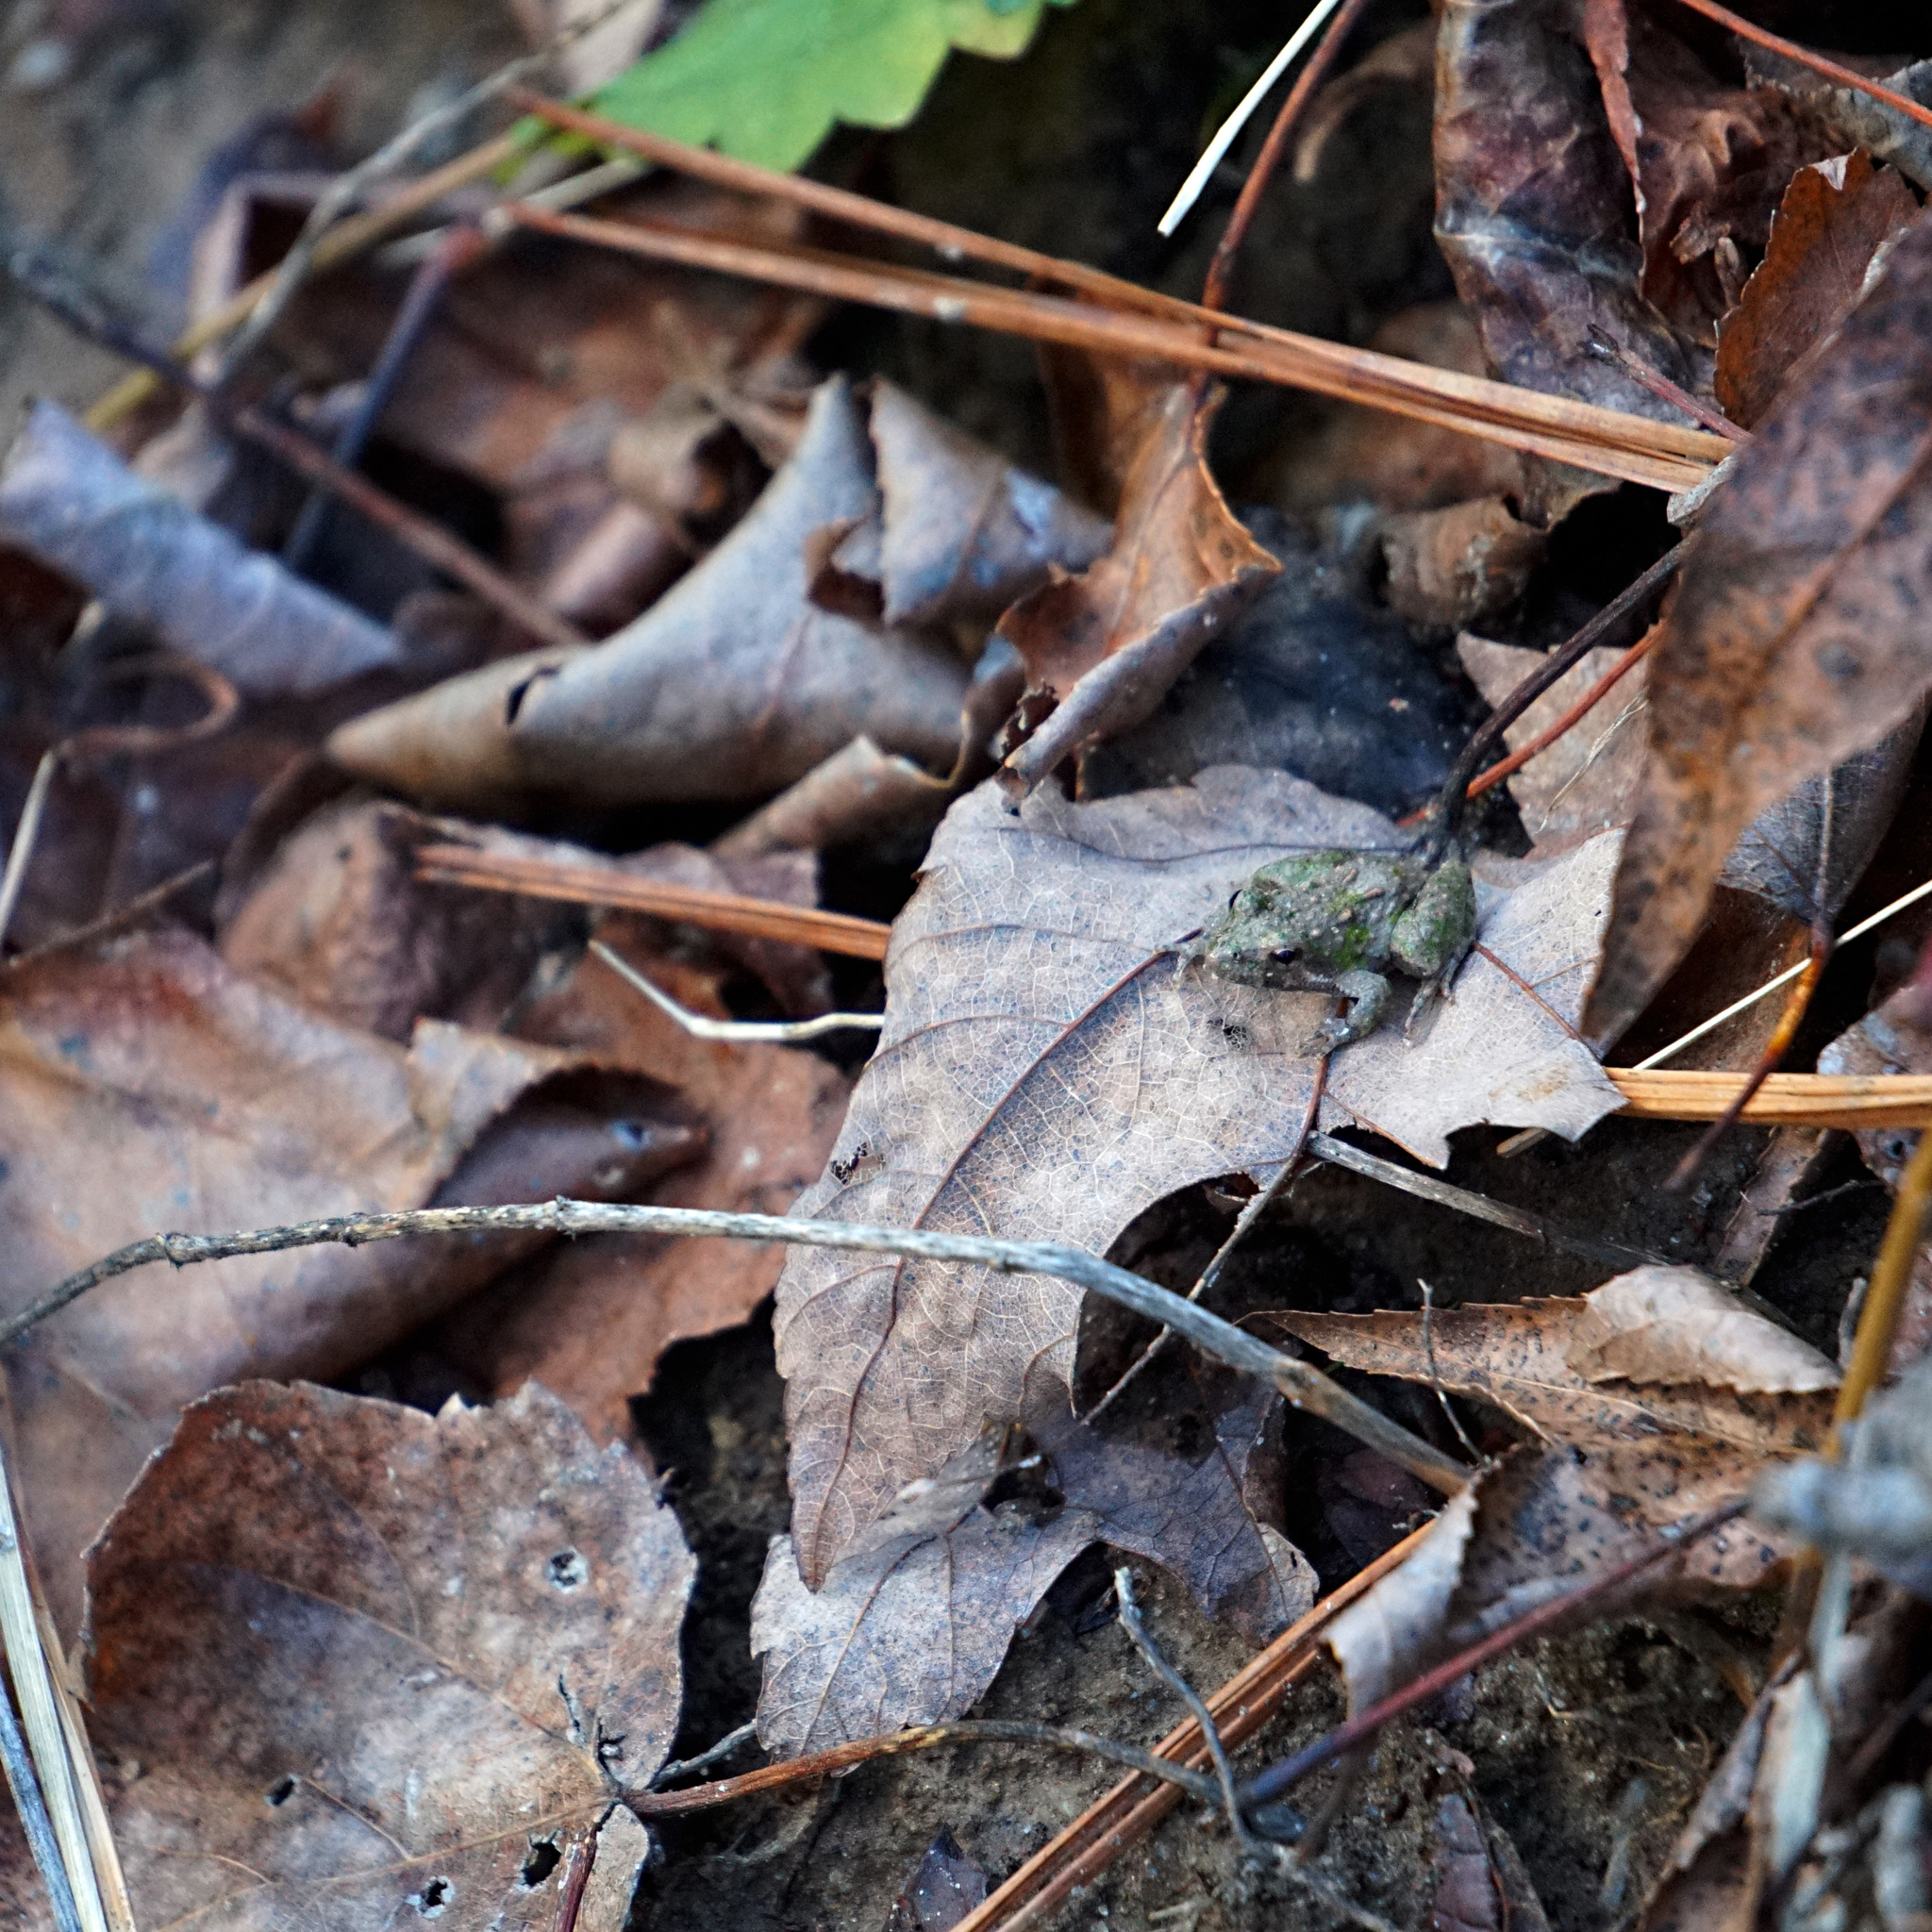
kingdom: Animalia
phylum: Chordata
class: Amphibia
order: Anura
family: Hylidae
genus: Acris
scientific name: Acris crepitans
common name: Northern cricket frog
